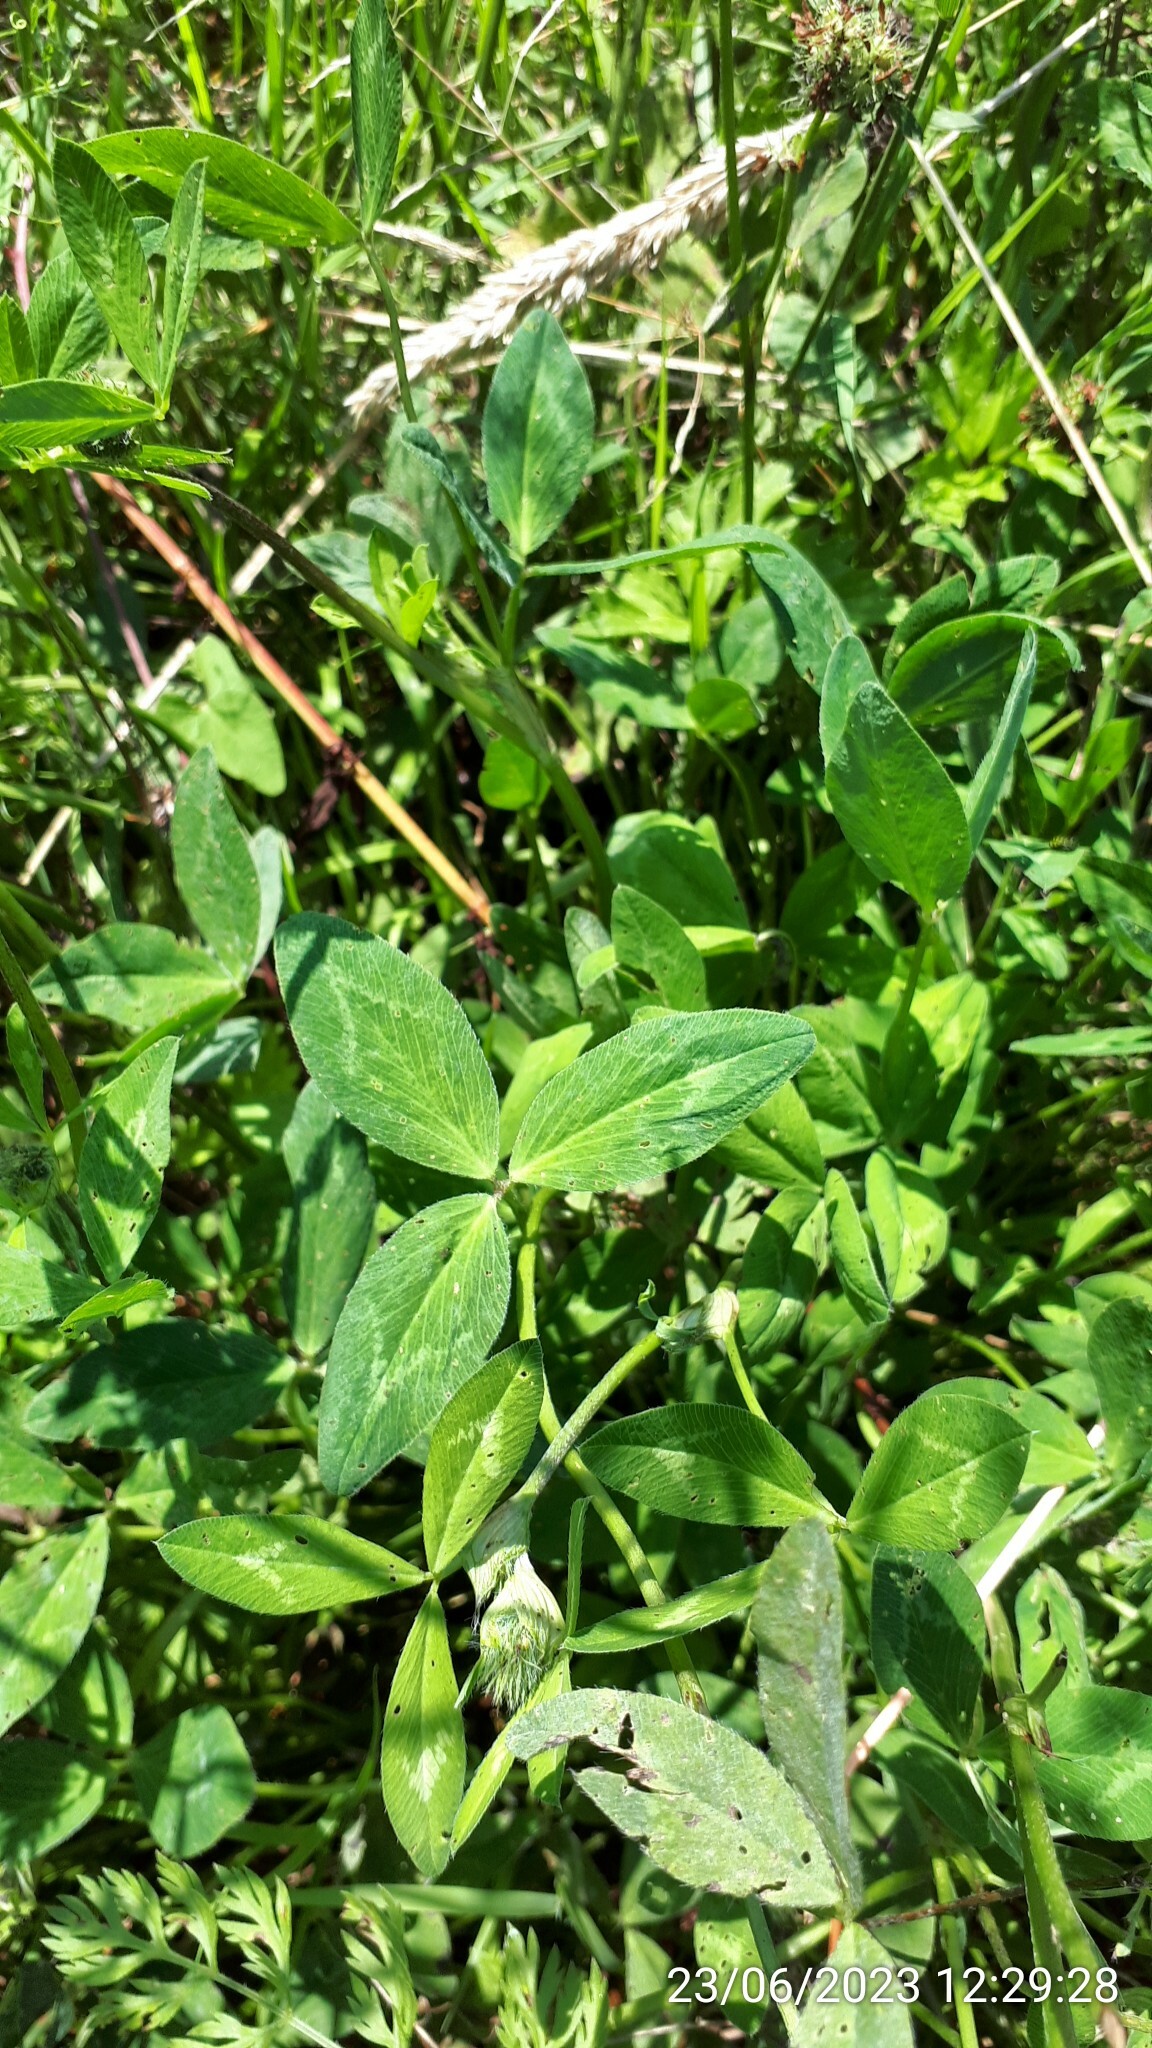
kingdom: Plantae
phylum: Tracheophyta
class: Magnoliopsida
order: Fabales
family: Fabaceae
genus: Trifolium
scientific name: Trifolium pratense
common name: Red clover
